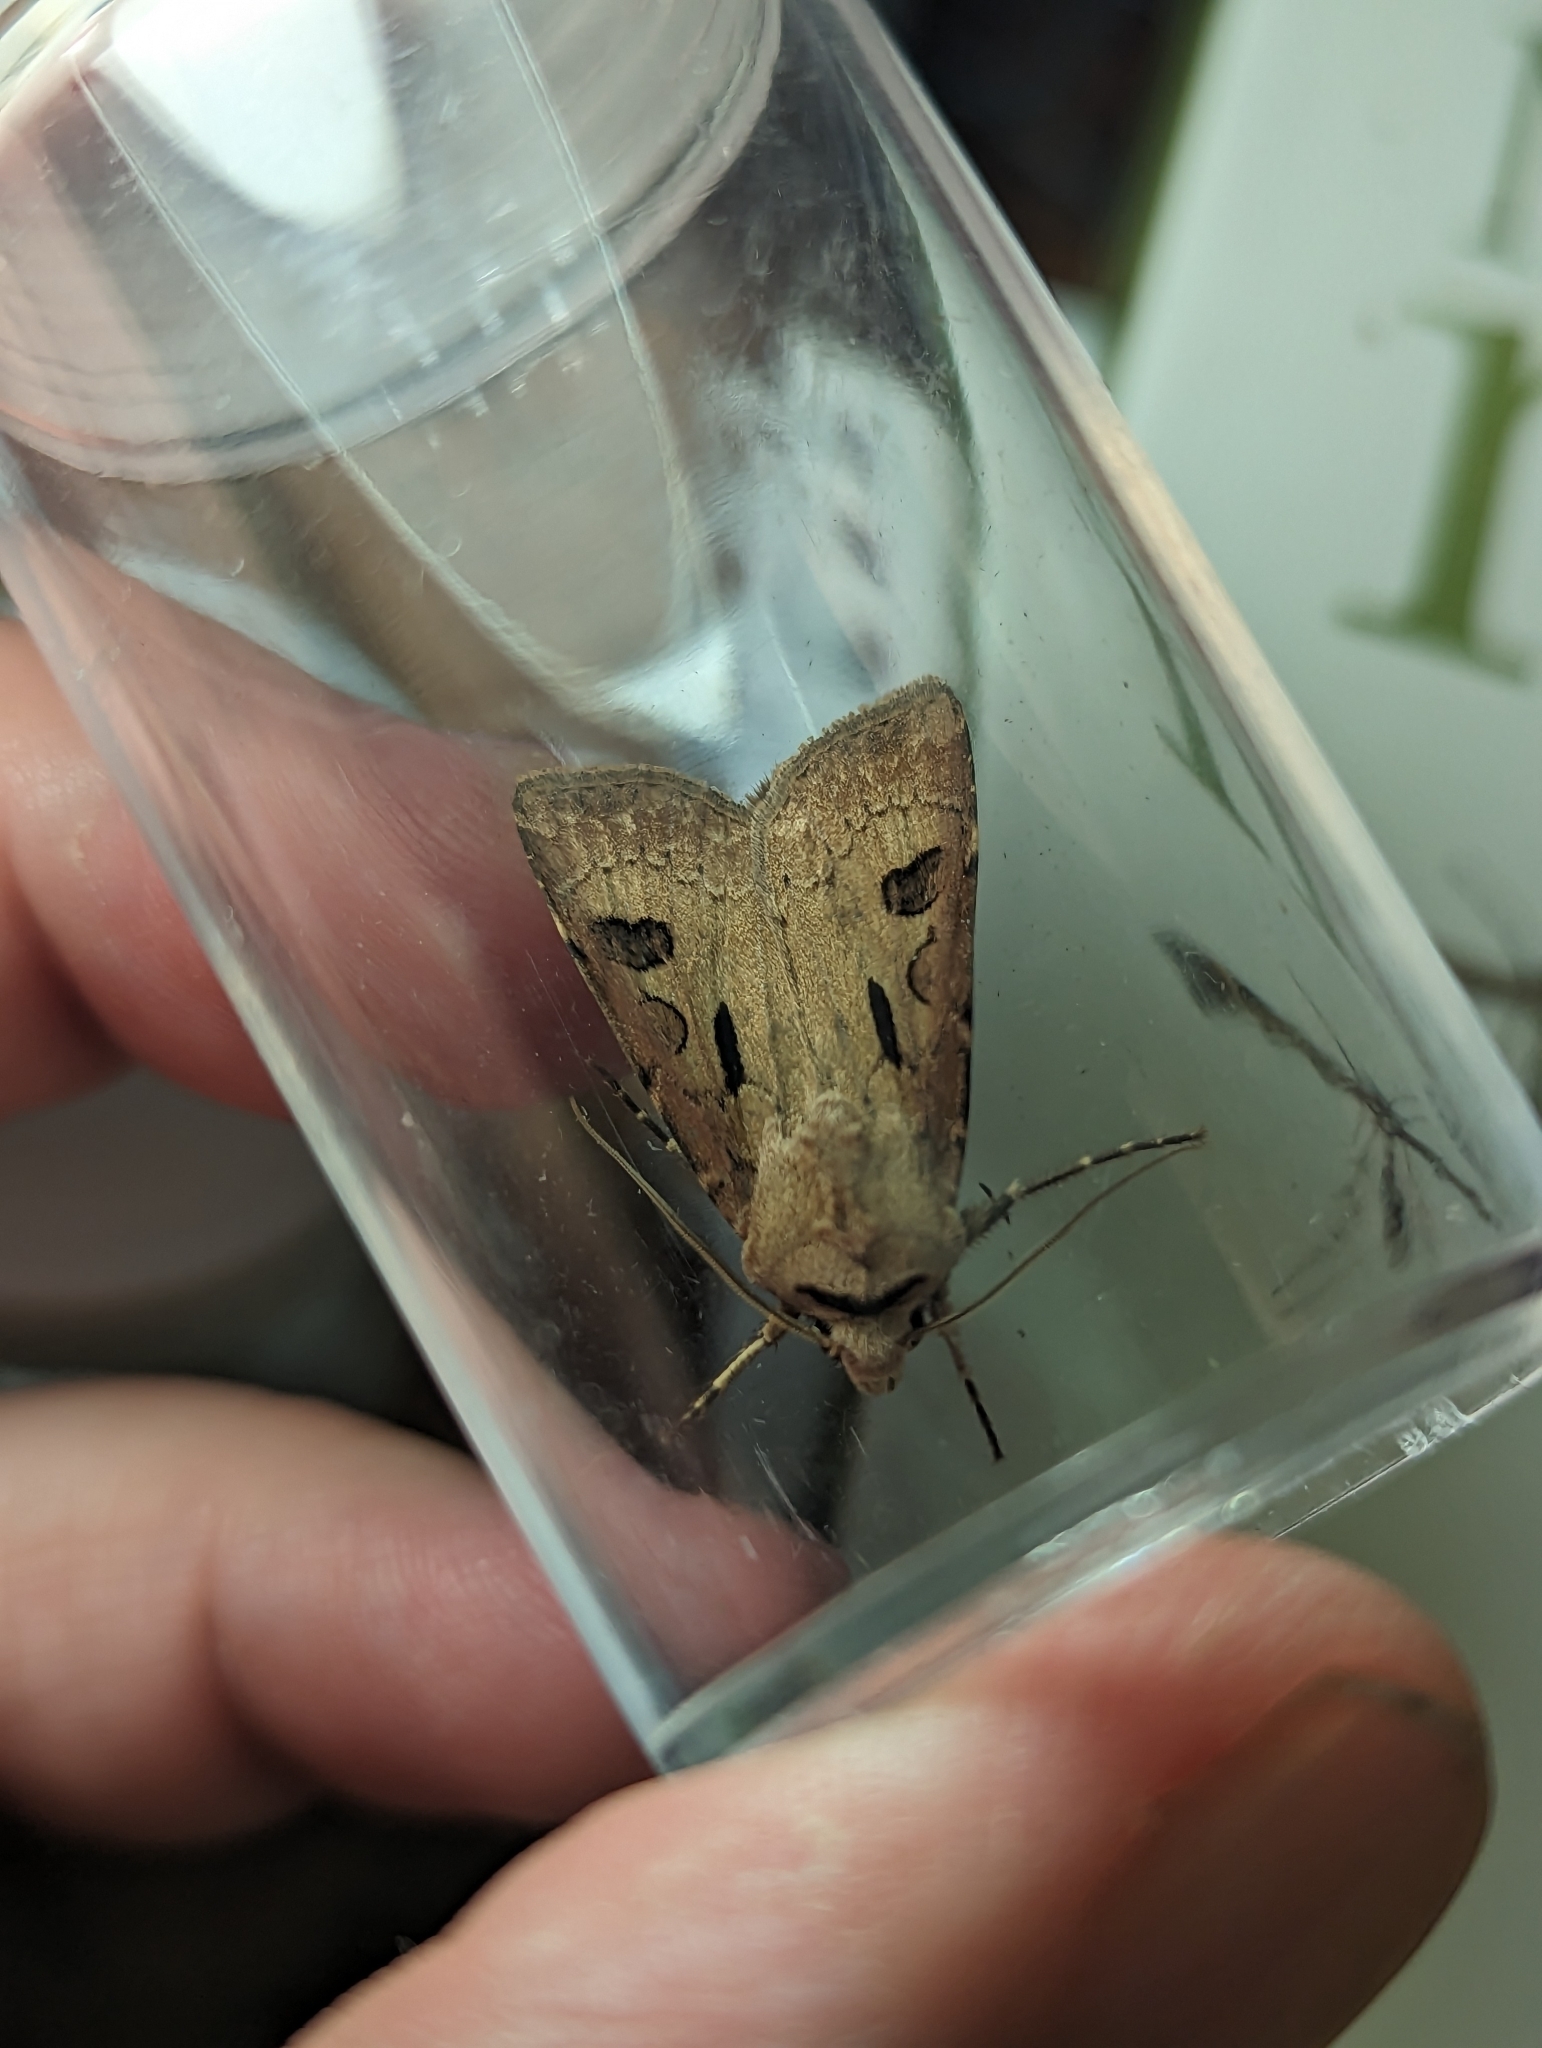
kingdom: Animalia
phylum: Arthropoda
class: Insecta
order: Lepidoptera
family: Noctuidae
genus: Agrotis
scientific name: Agrotis exclamationis
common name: Heart and dart
